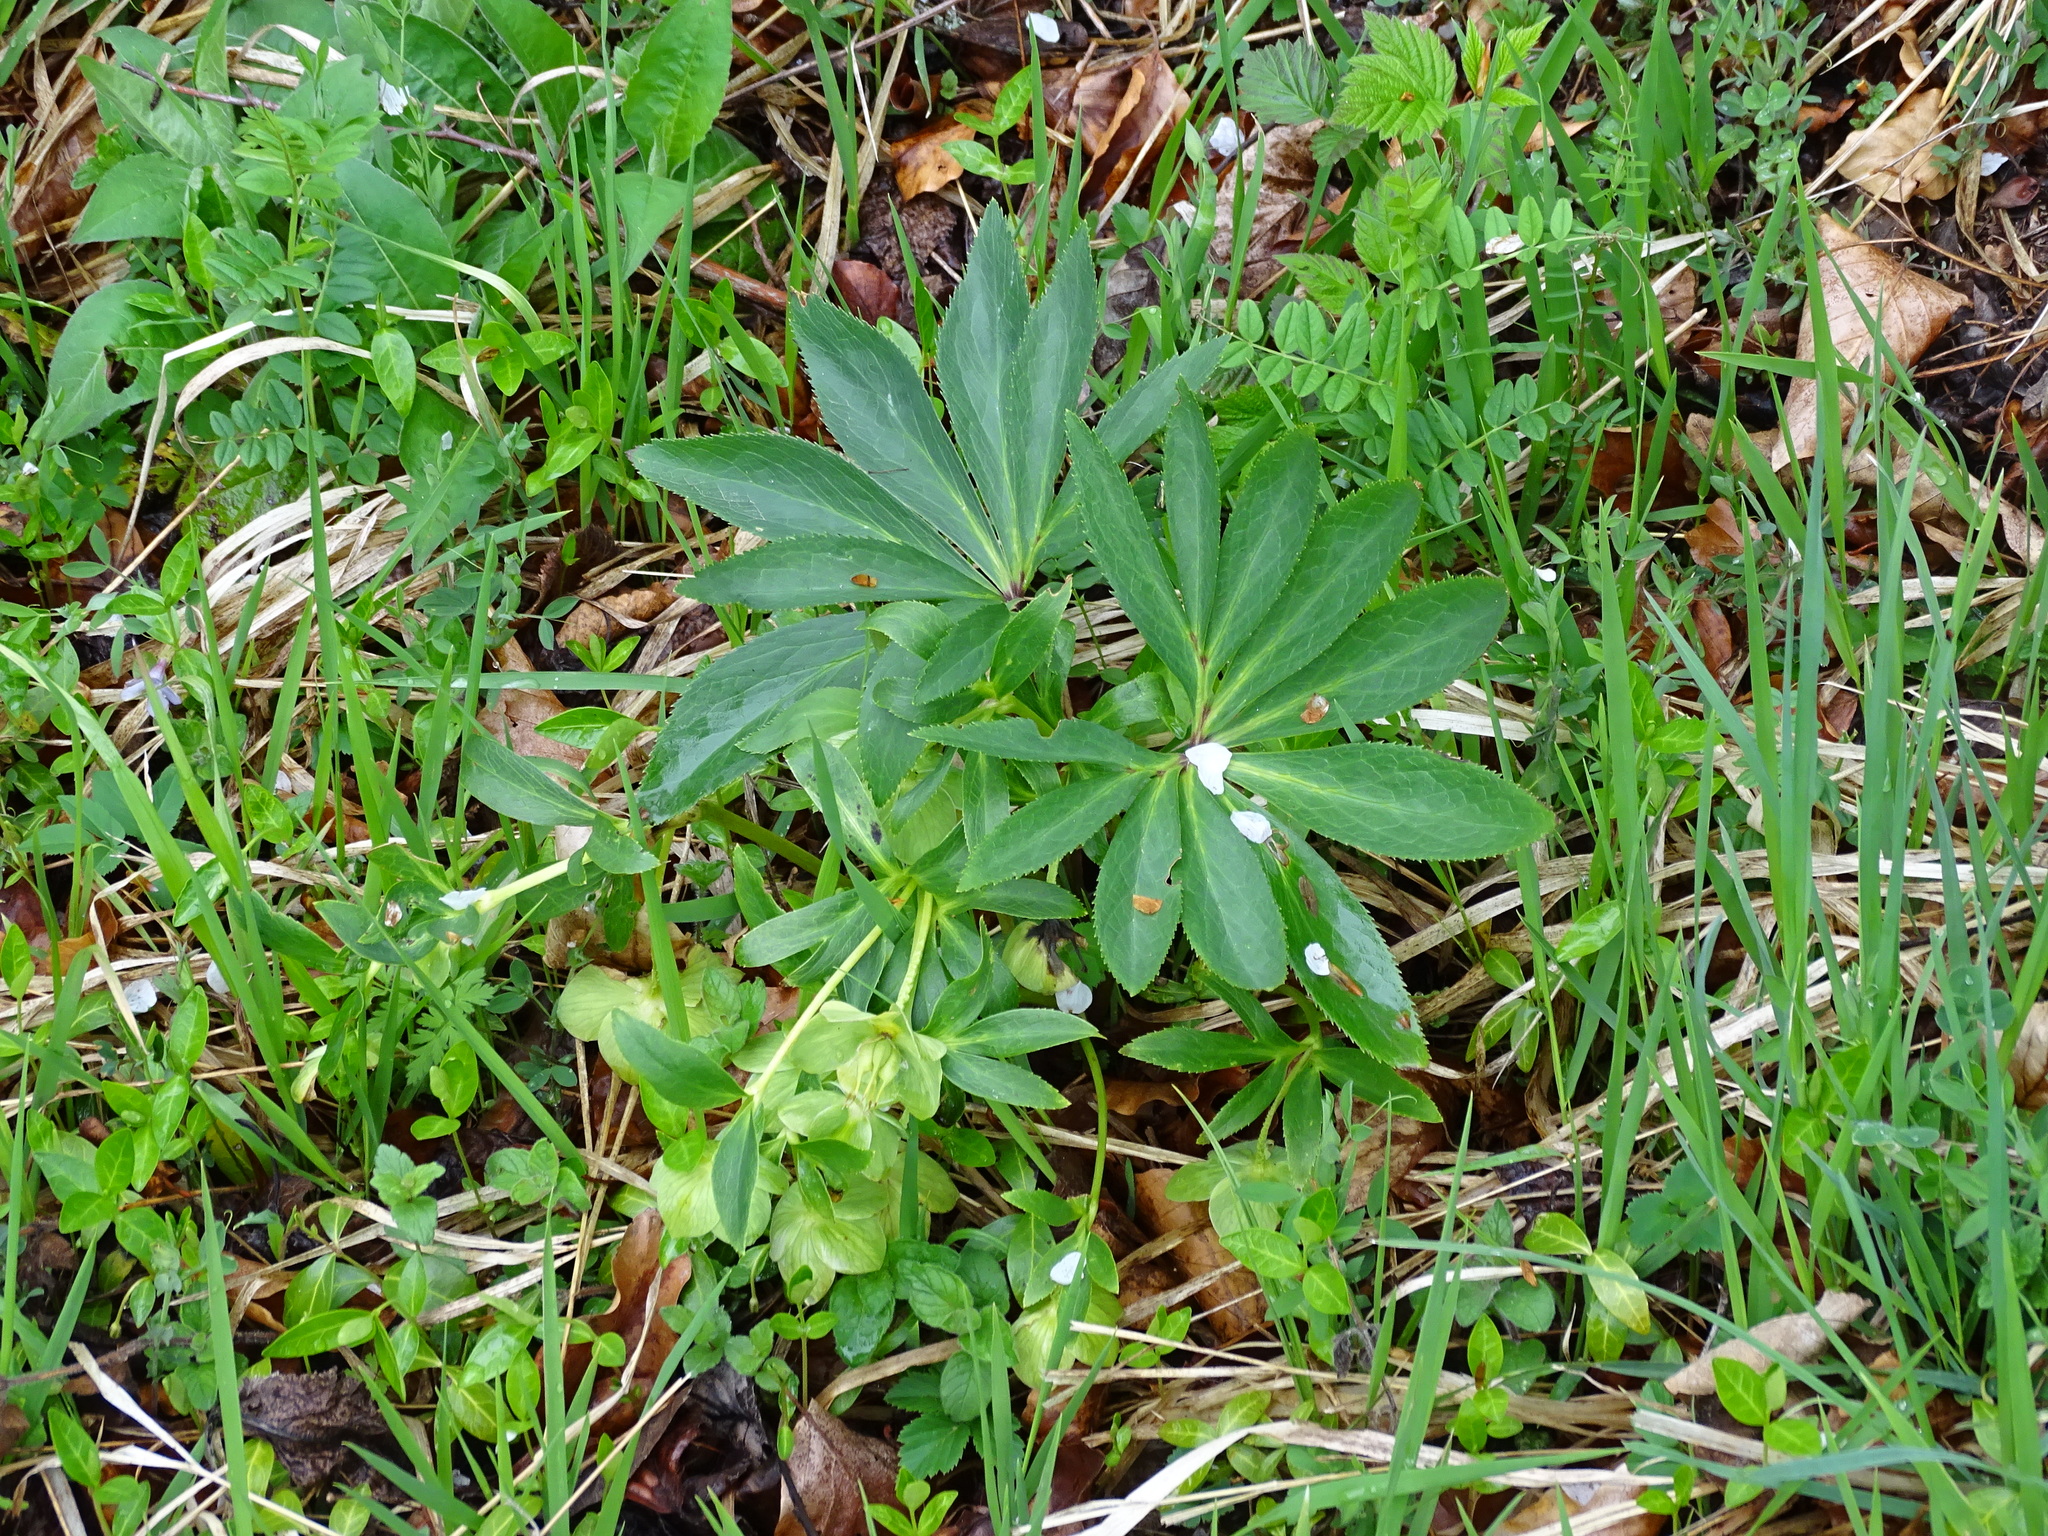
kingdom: Plantae
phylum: Tracheophyta
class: Magnoliopsida
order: Ranunculales
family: Ranunculaceae
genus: Helleborus
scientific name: Helleborus dumetorum
